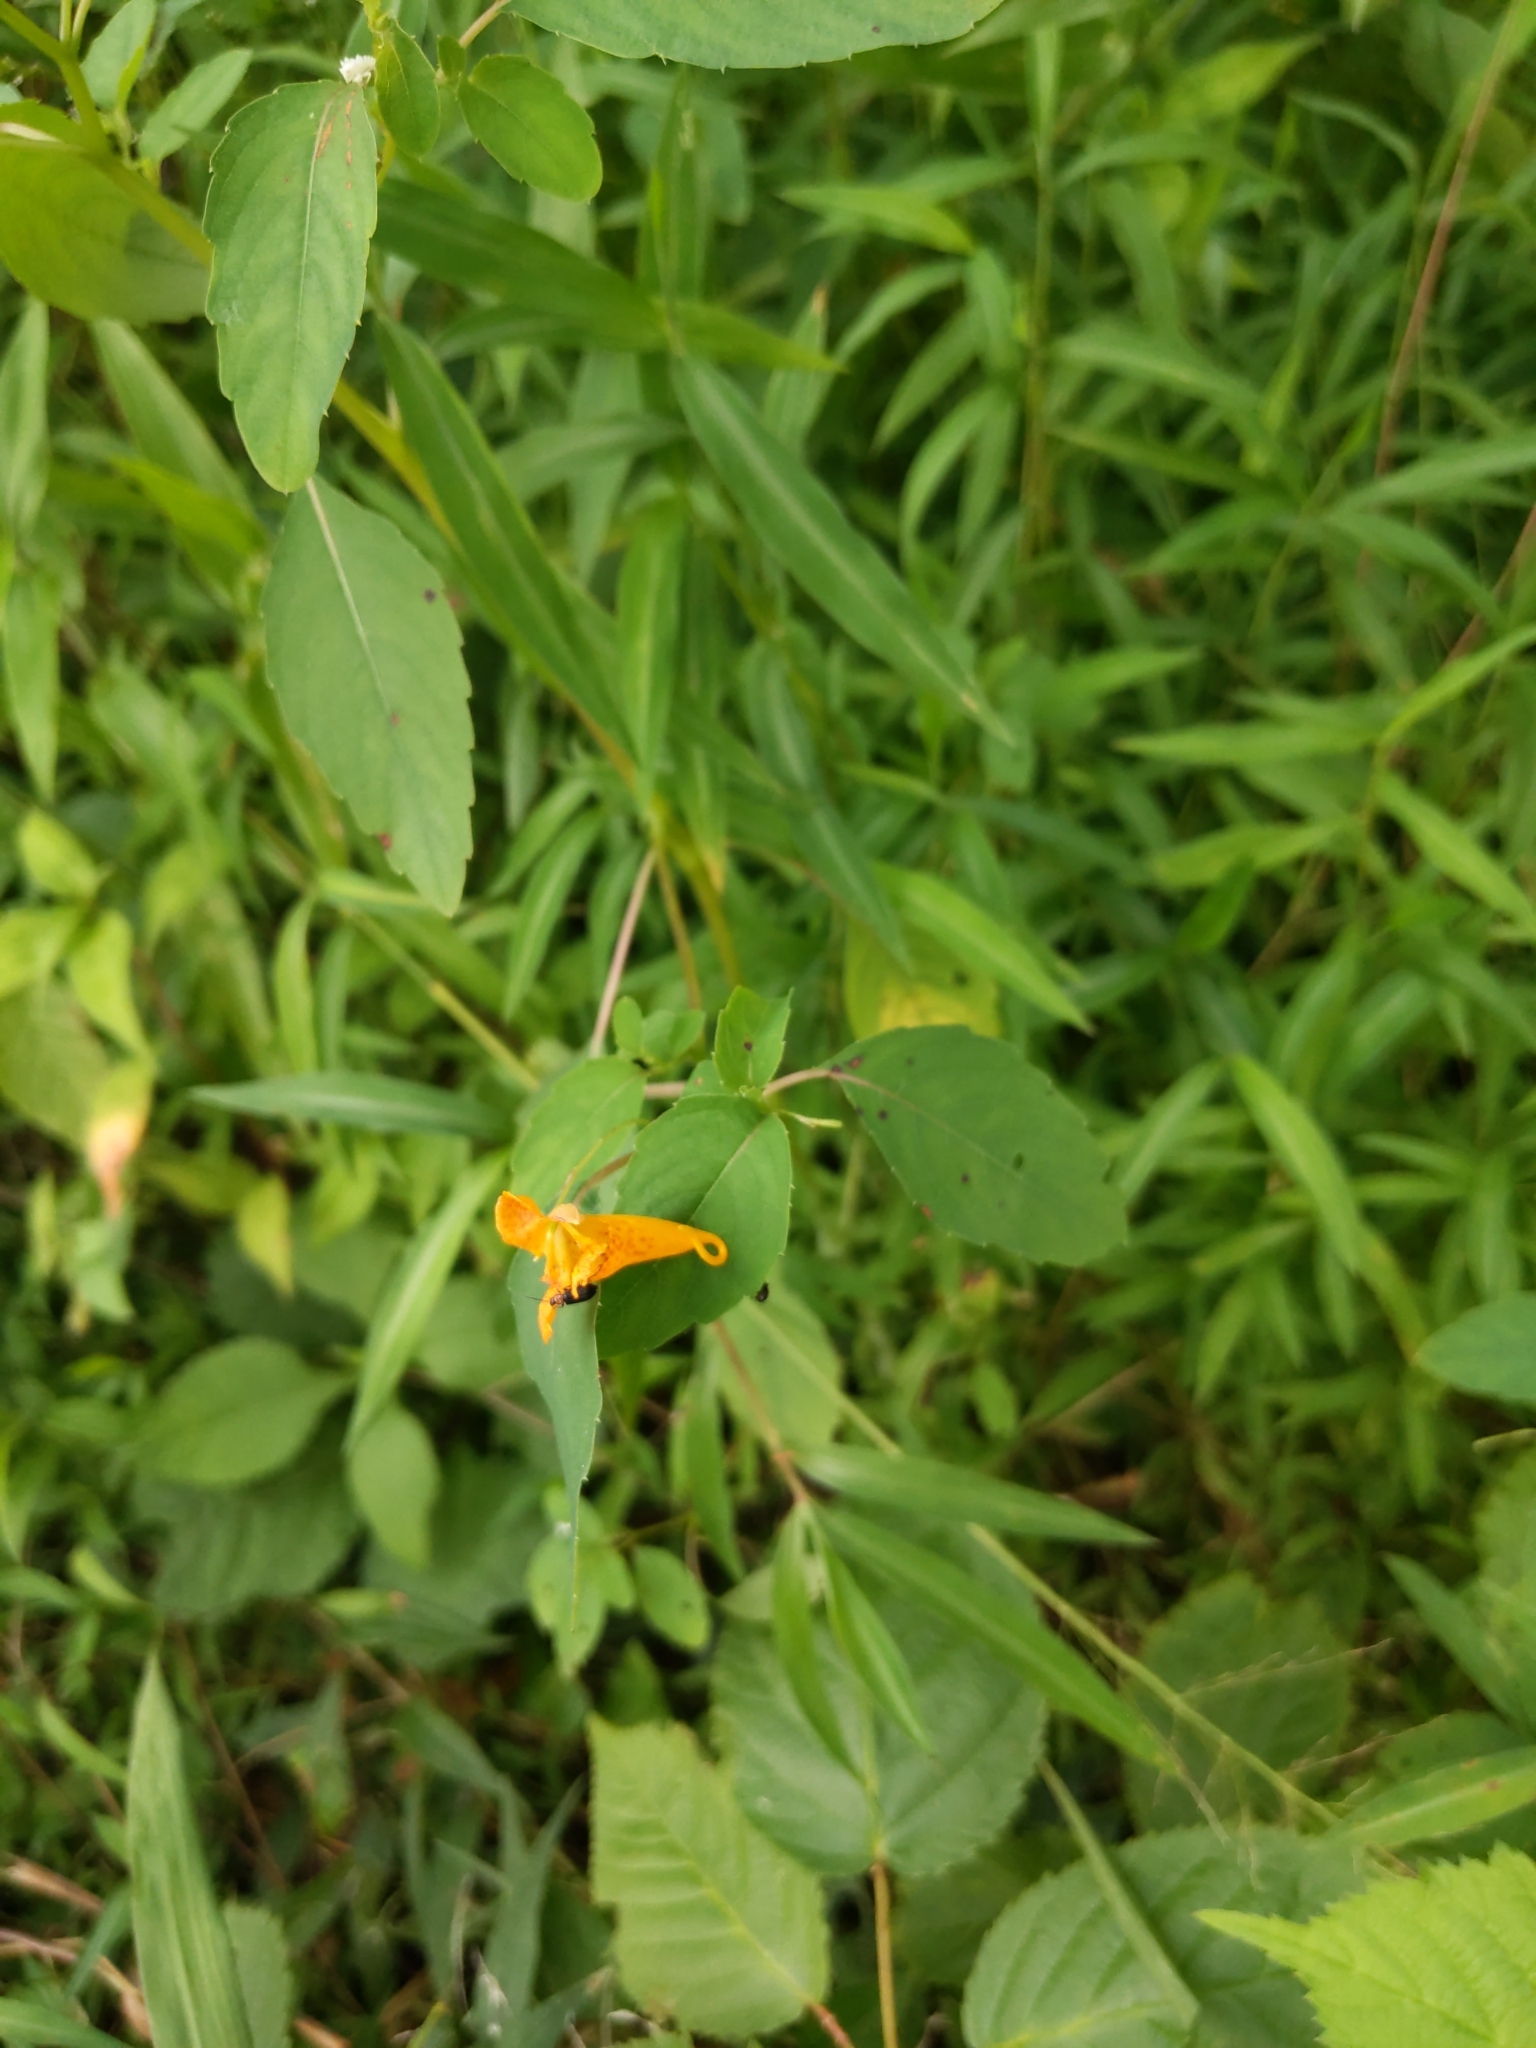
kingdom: Plantae
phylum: Tracheophyta
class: Magnoliopsida
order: Ericales
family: Balsaminaceae
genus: Impatiens
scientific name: Impatiens capensis
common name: Orange balsam
